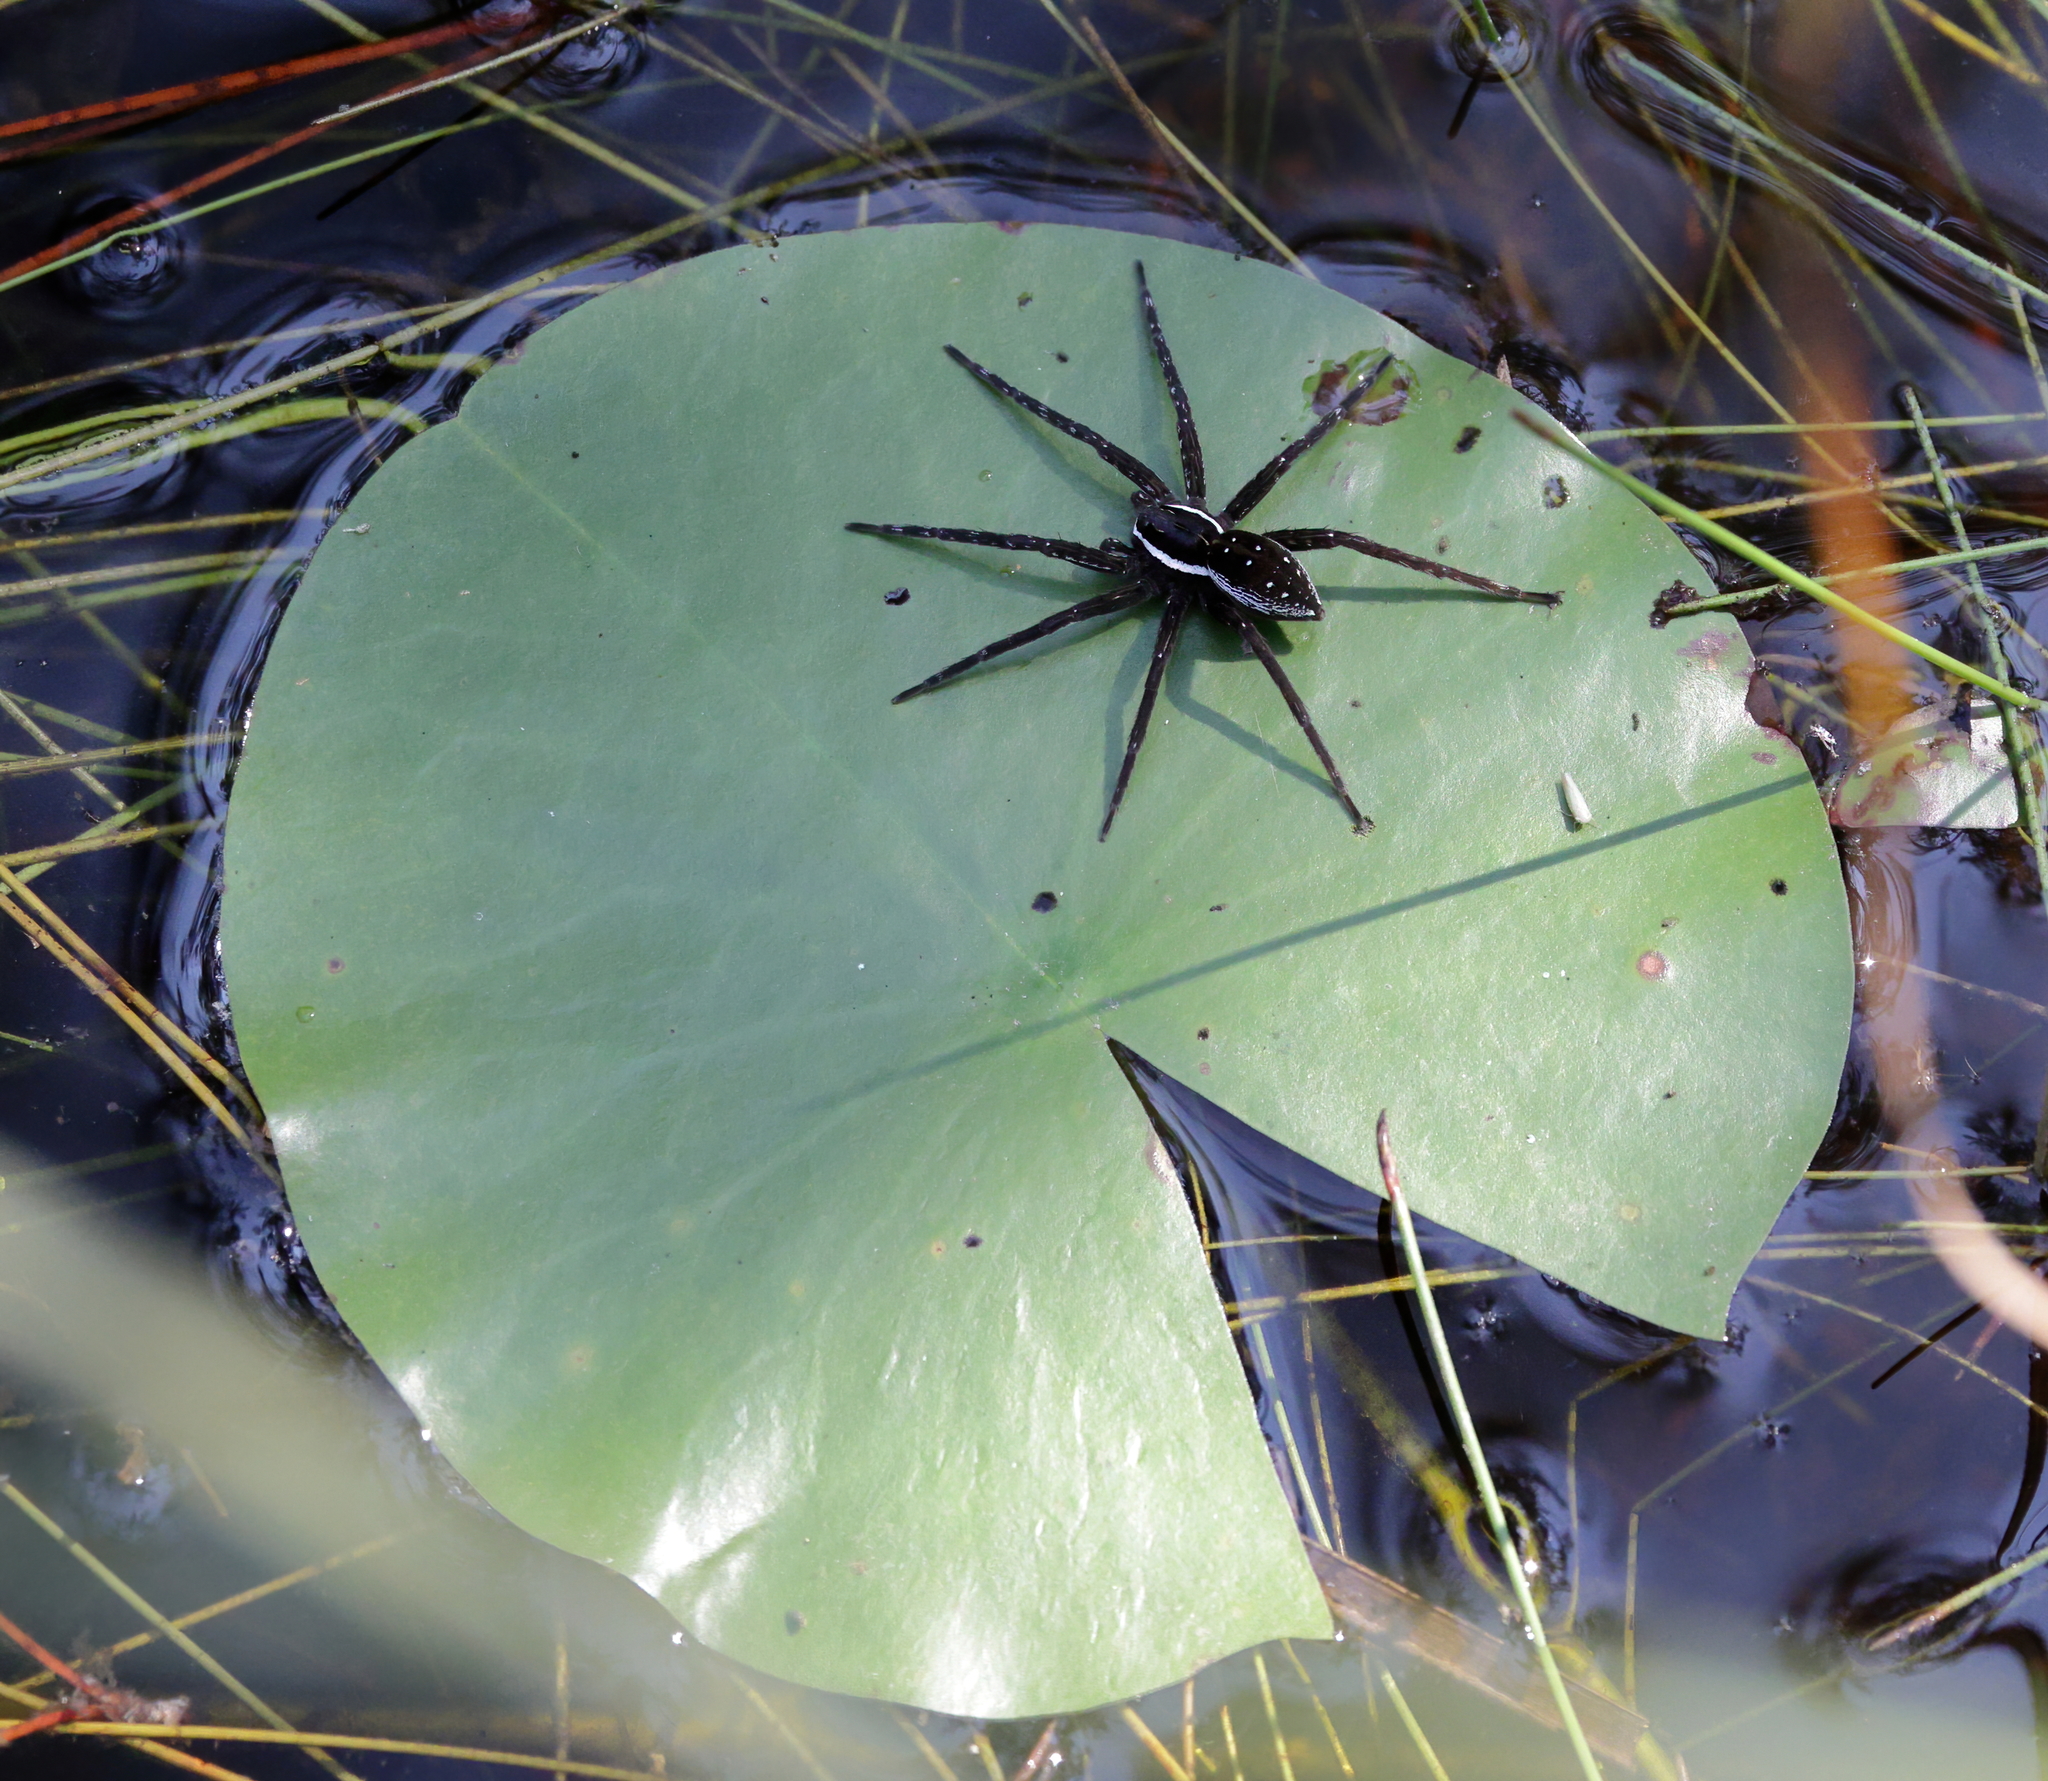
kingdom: Animalia
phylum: Arthropoda
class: Arachnida
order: Araneae
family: Pisauridae
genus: Dolomedes
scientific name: Dolomedes triton
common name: Six-spotted fishing spider
